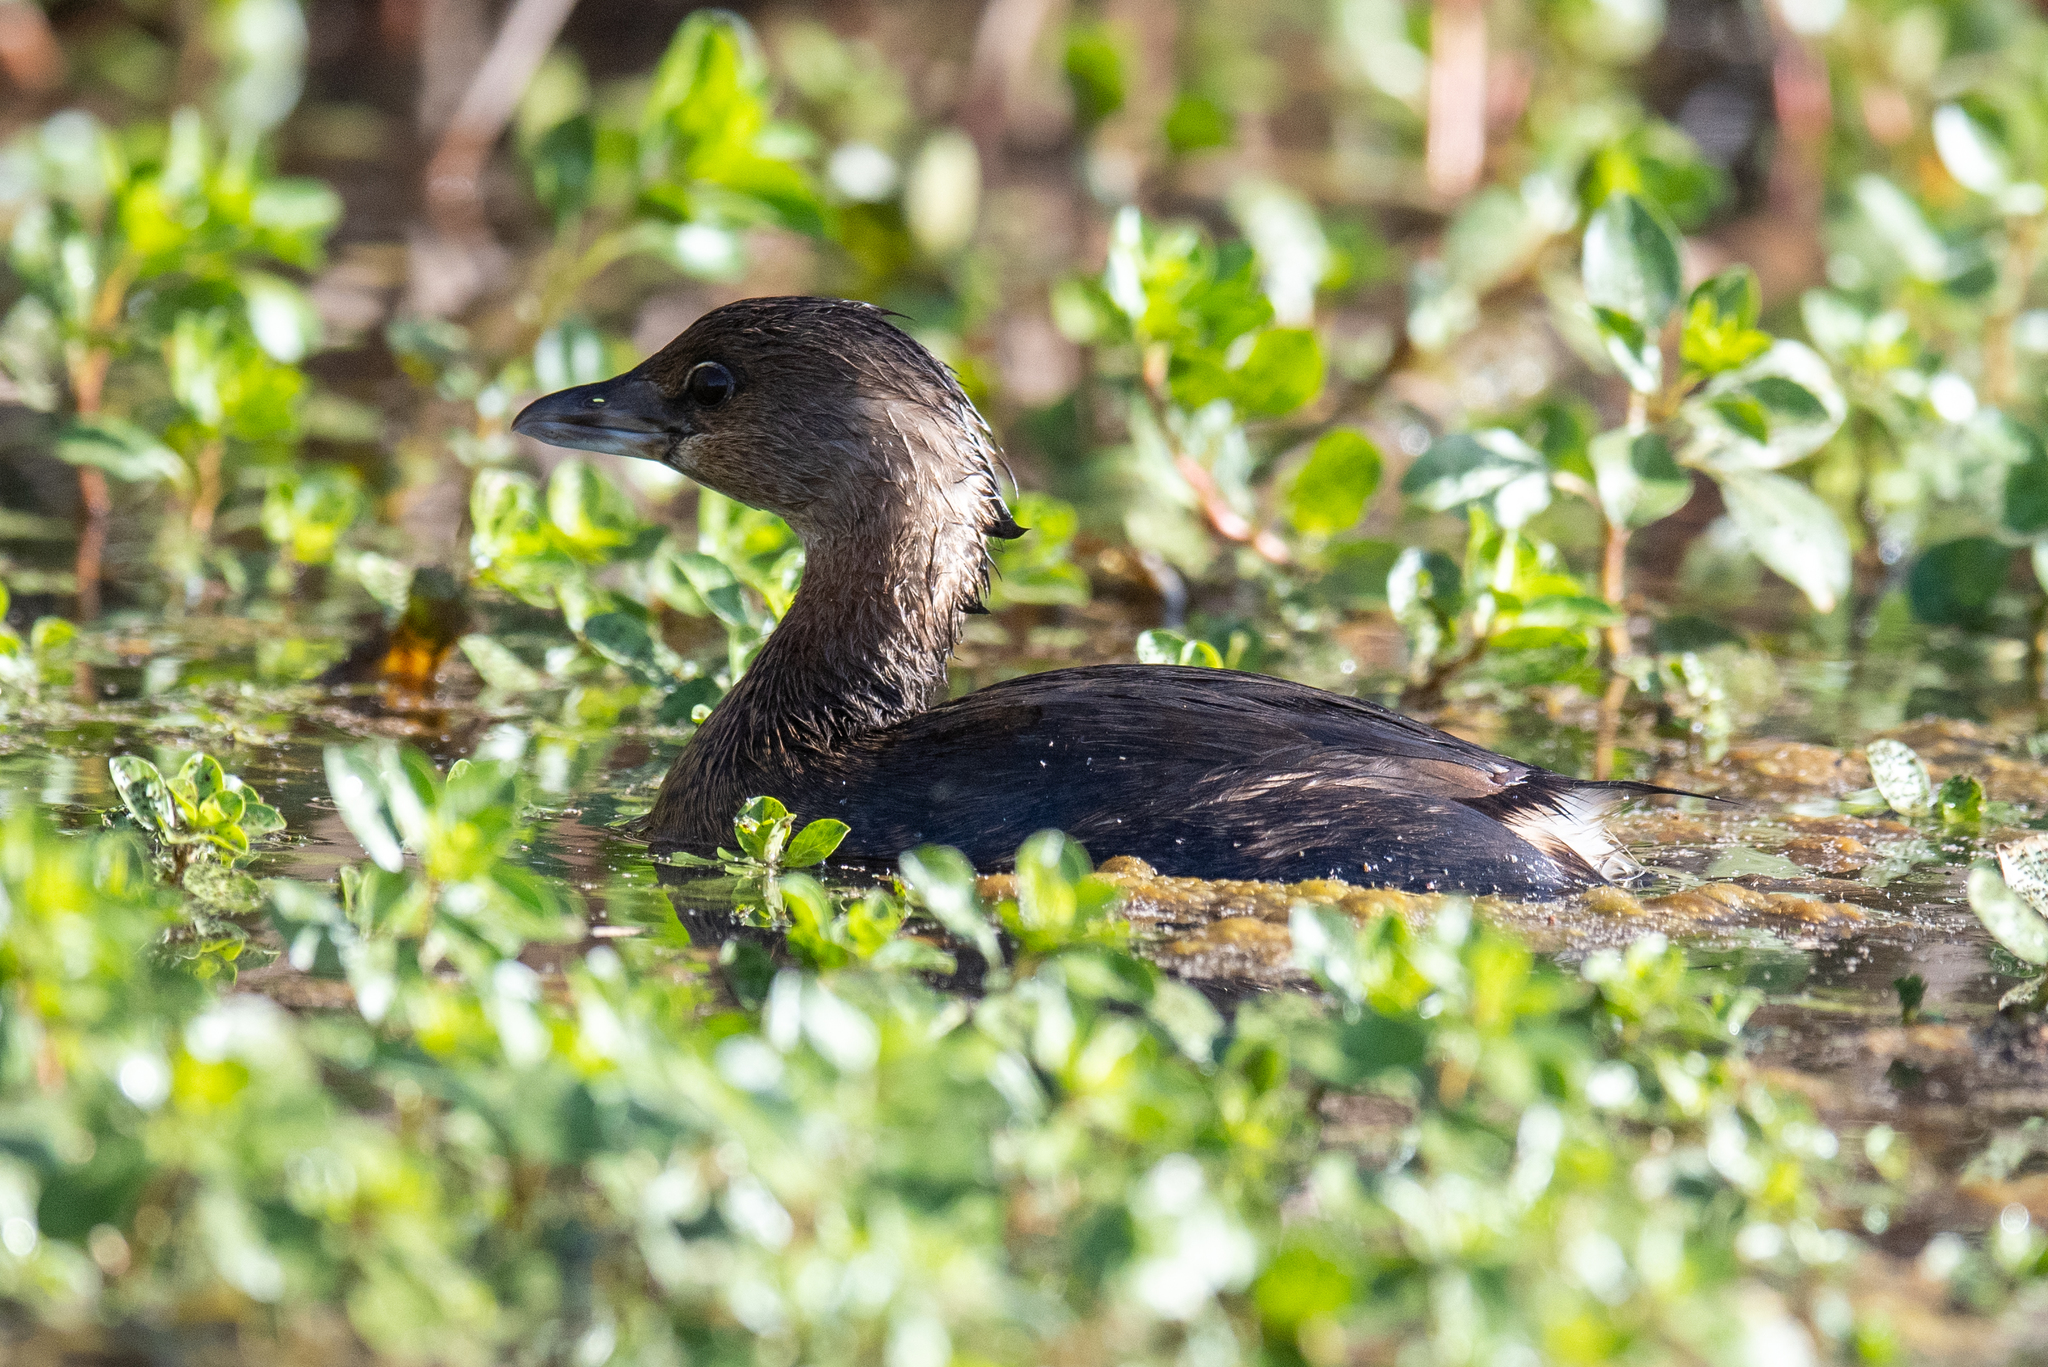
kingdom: Animalia
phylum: Chordata
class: Aves
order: Podicipediformes
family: Podicipedidae
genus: Podilymbus
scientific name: Podilymbus podiceps
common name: Pied-billed grebe
